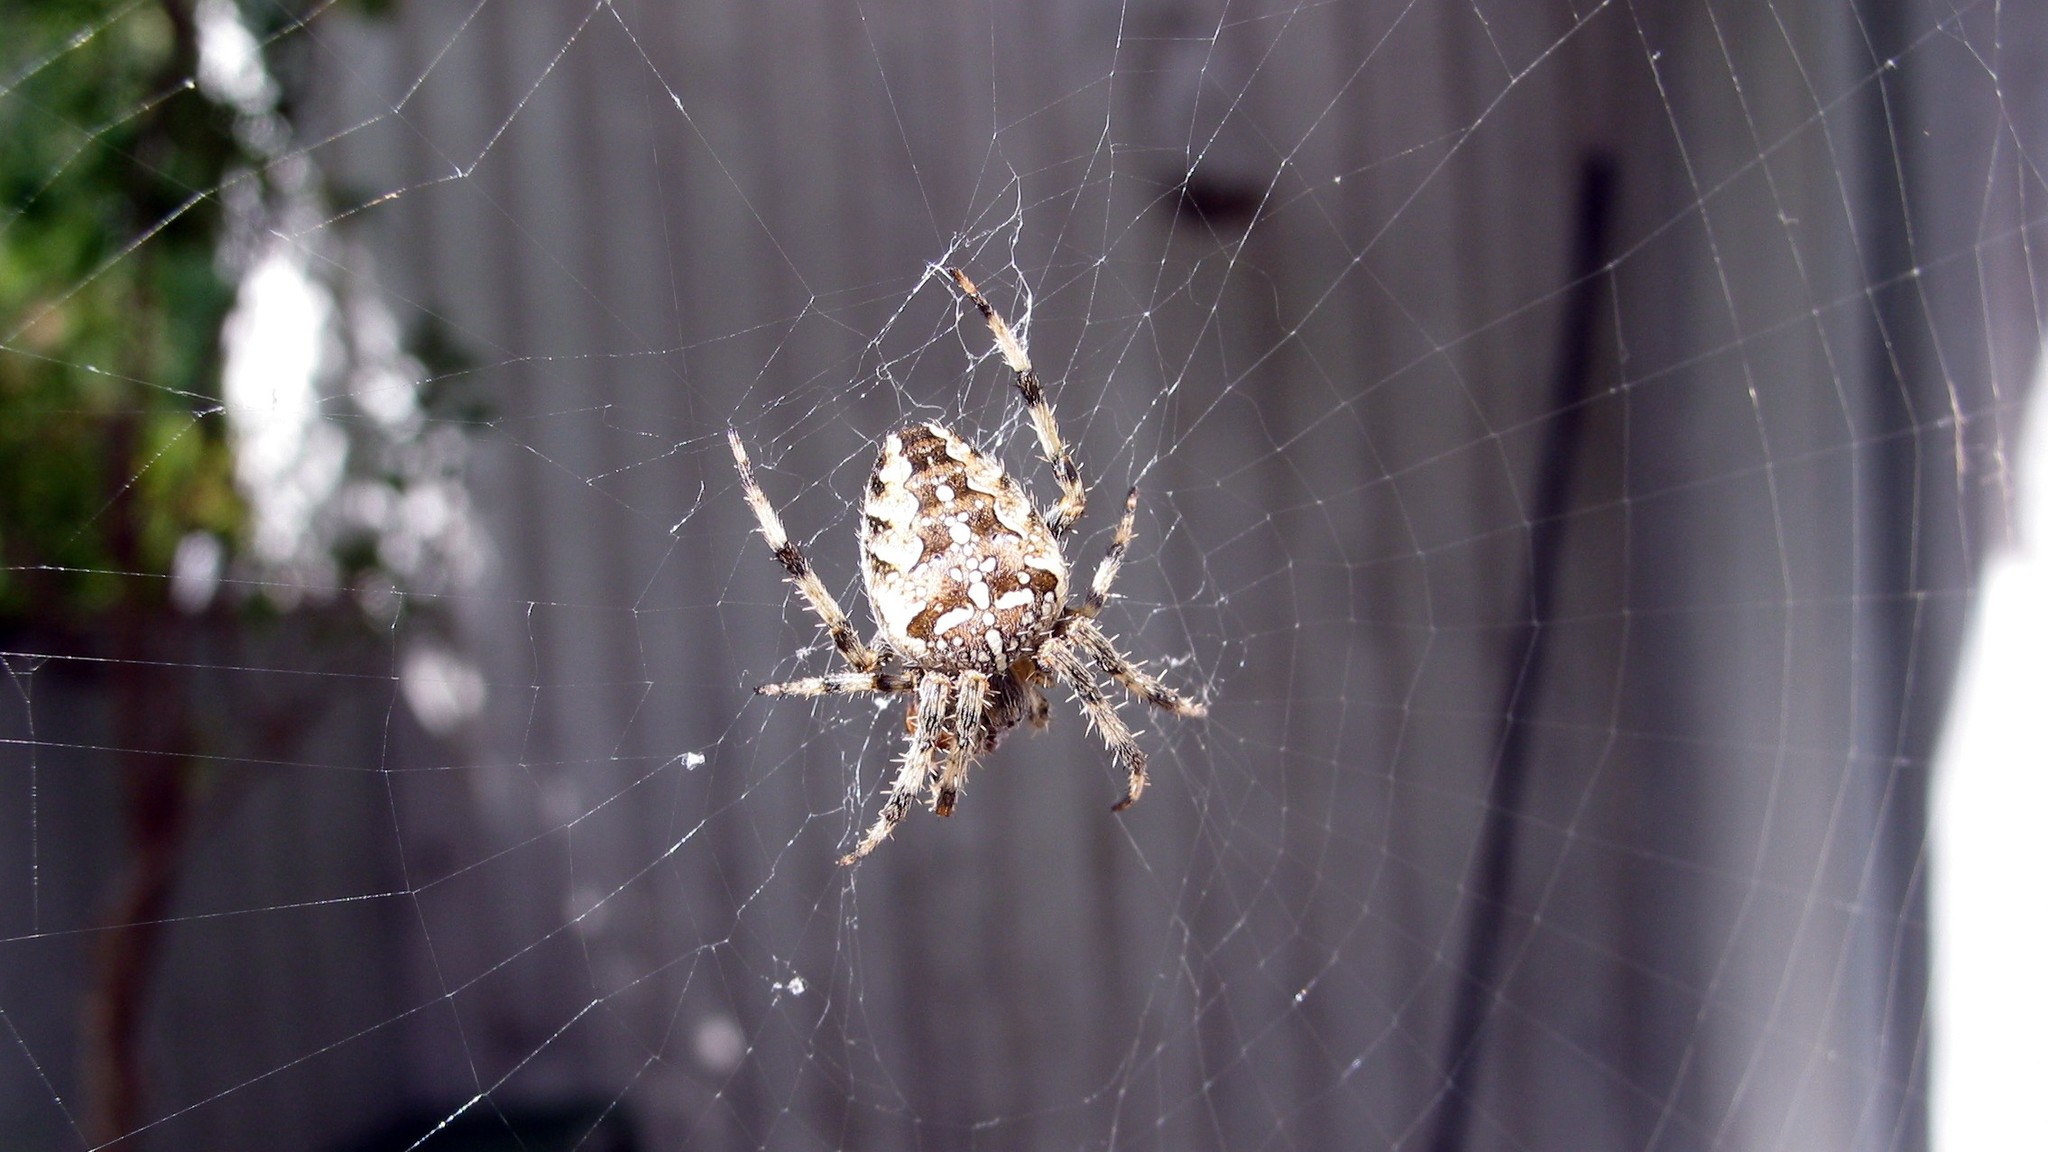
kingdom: Animalia
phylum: Arthropoda
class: Arachnida
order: Araneae
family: Araneidae
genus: Araneus
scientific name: Araneus diadematus
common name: Cross orbweaver
